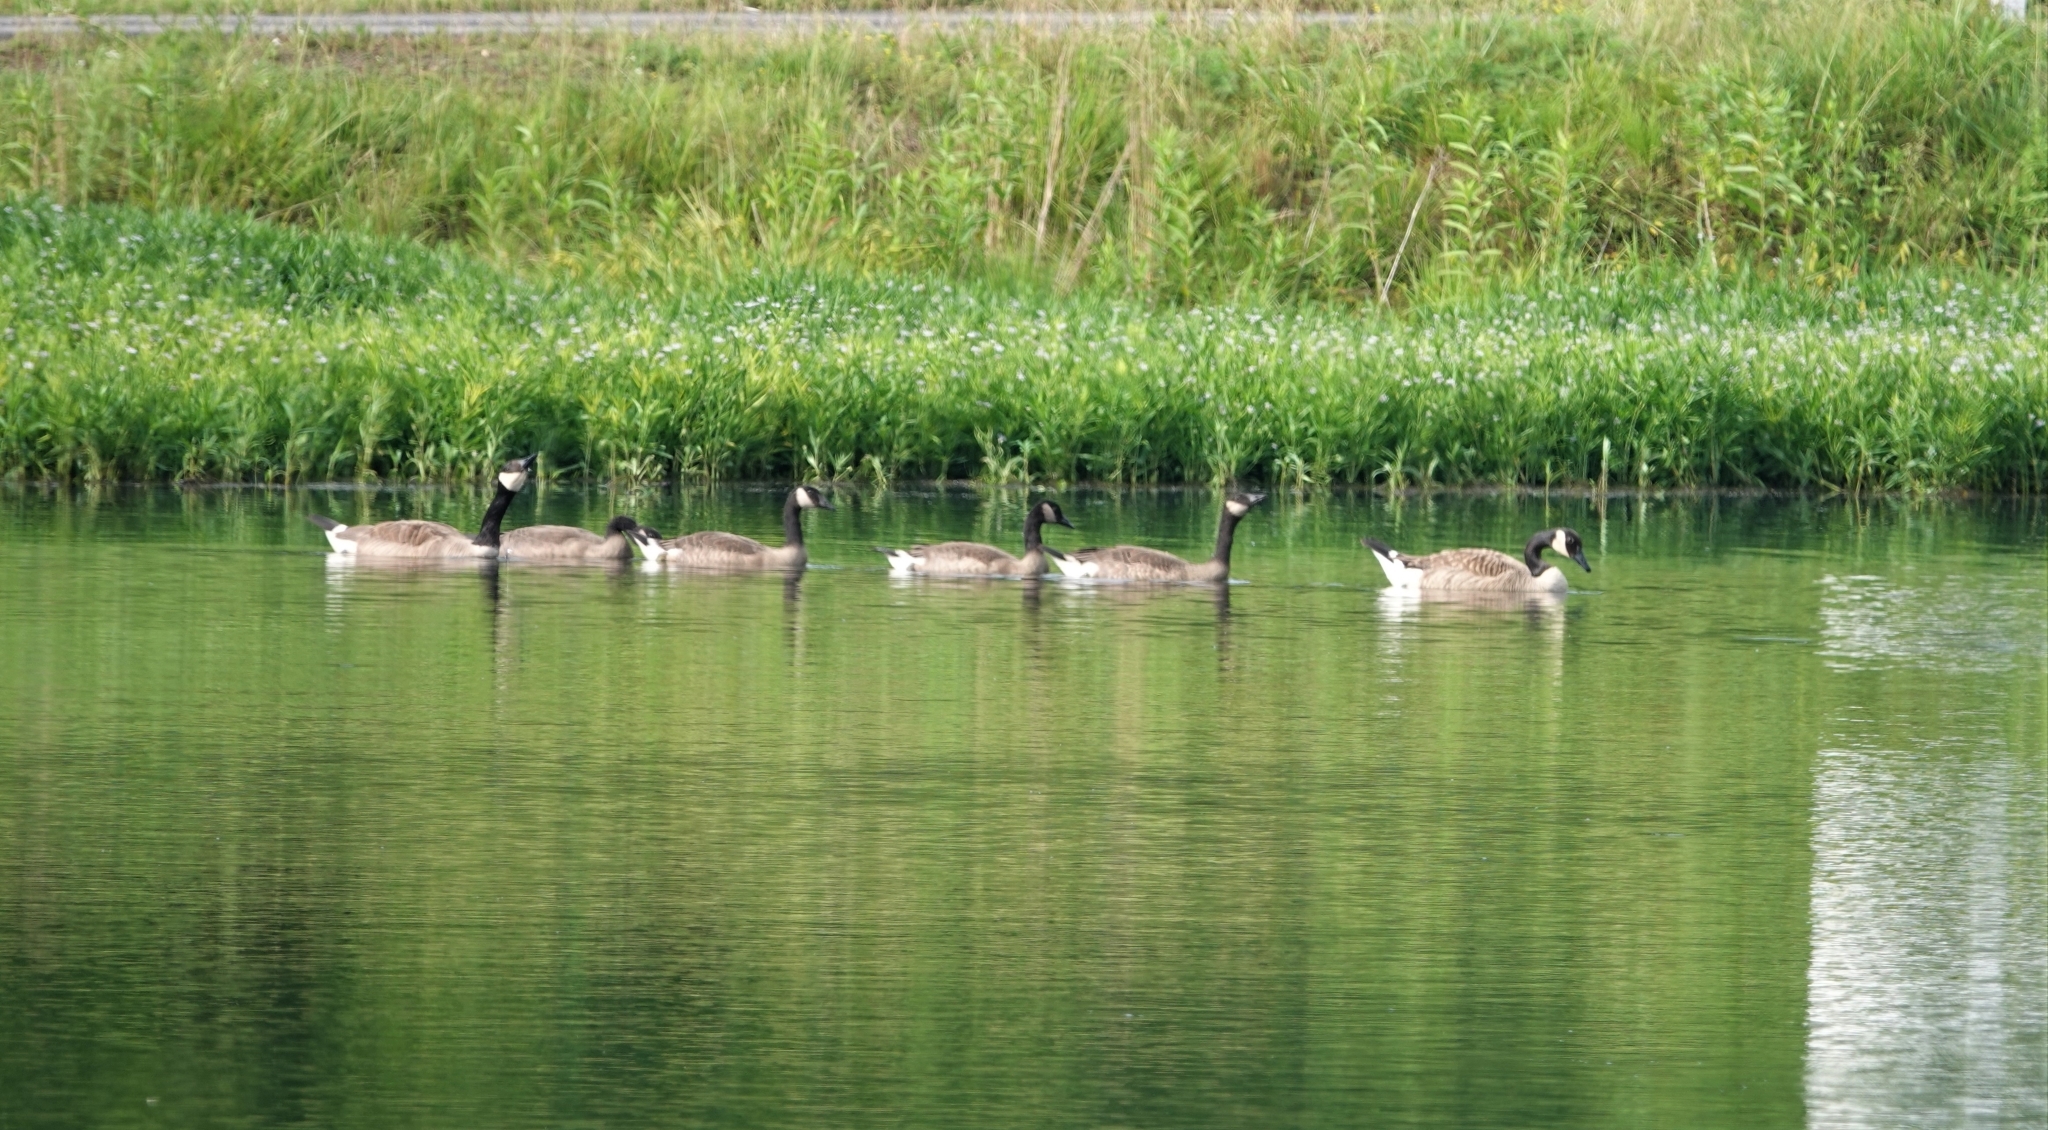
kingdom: Animalia
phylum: Chordata
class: Aves
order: Anseriformes
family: Anatidae
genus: Branta
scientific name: Branta canadensis
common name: Canada goose
